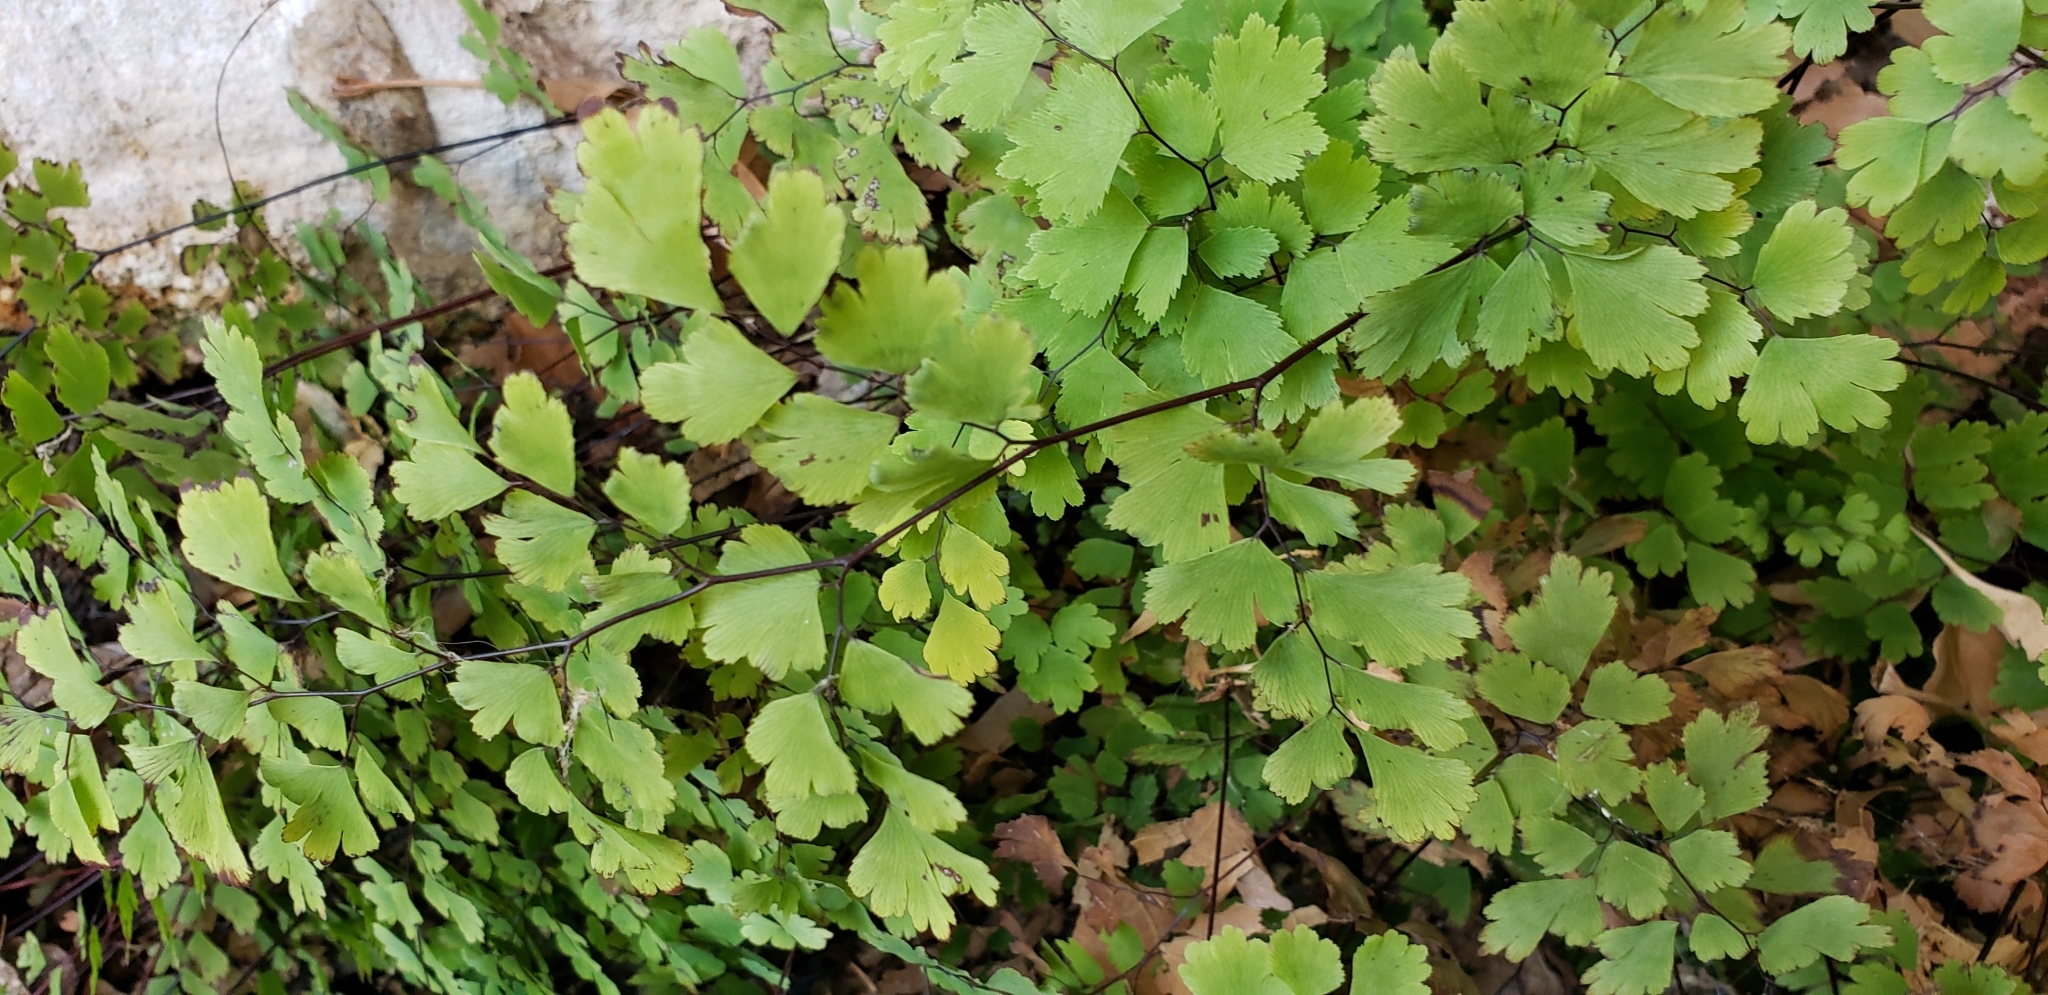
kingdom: Plantae
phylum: Tracheophyta
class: Polypodiopsida
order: Polypodiales
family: Pteridaceae
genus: Adiantum
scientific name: Adiantum capillus-veneris
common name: Maidenhair fern
